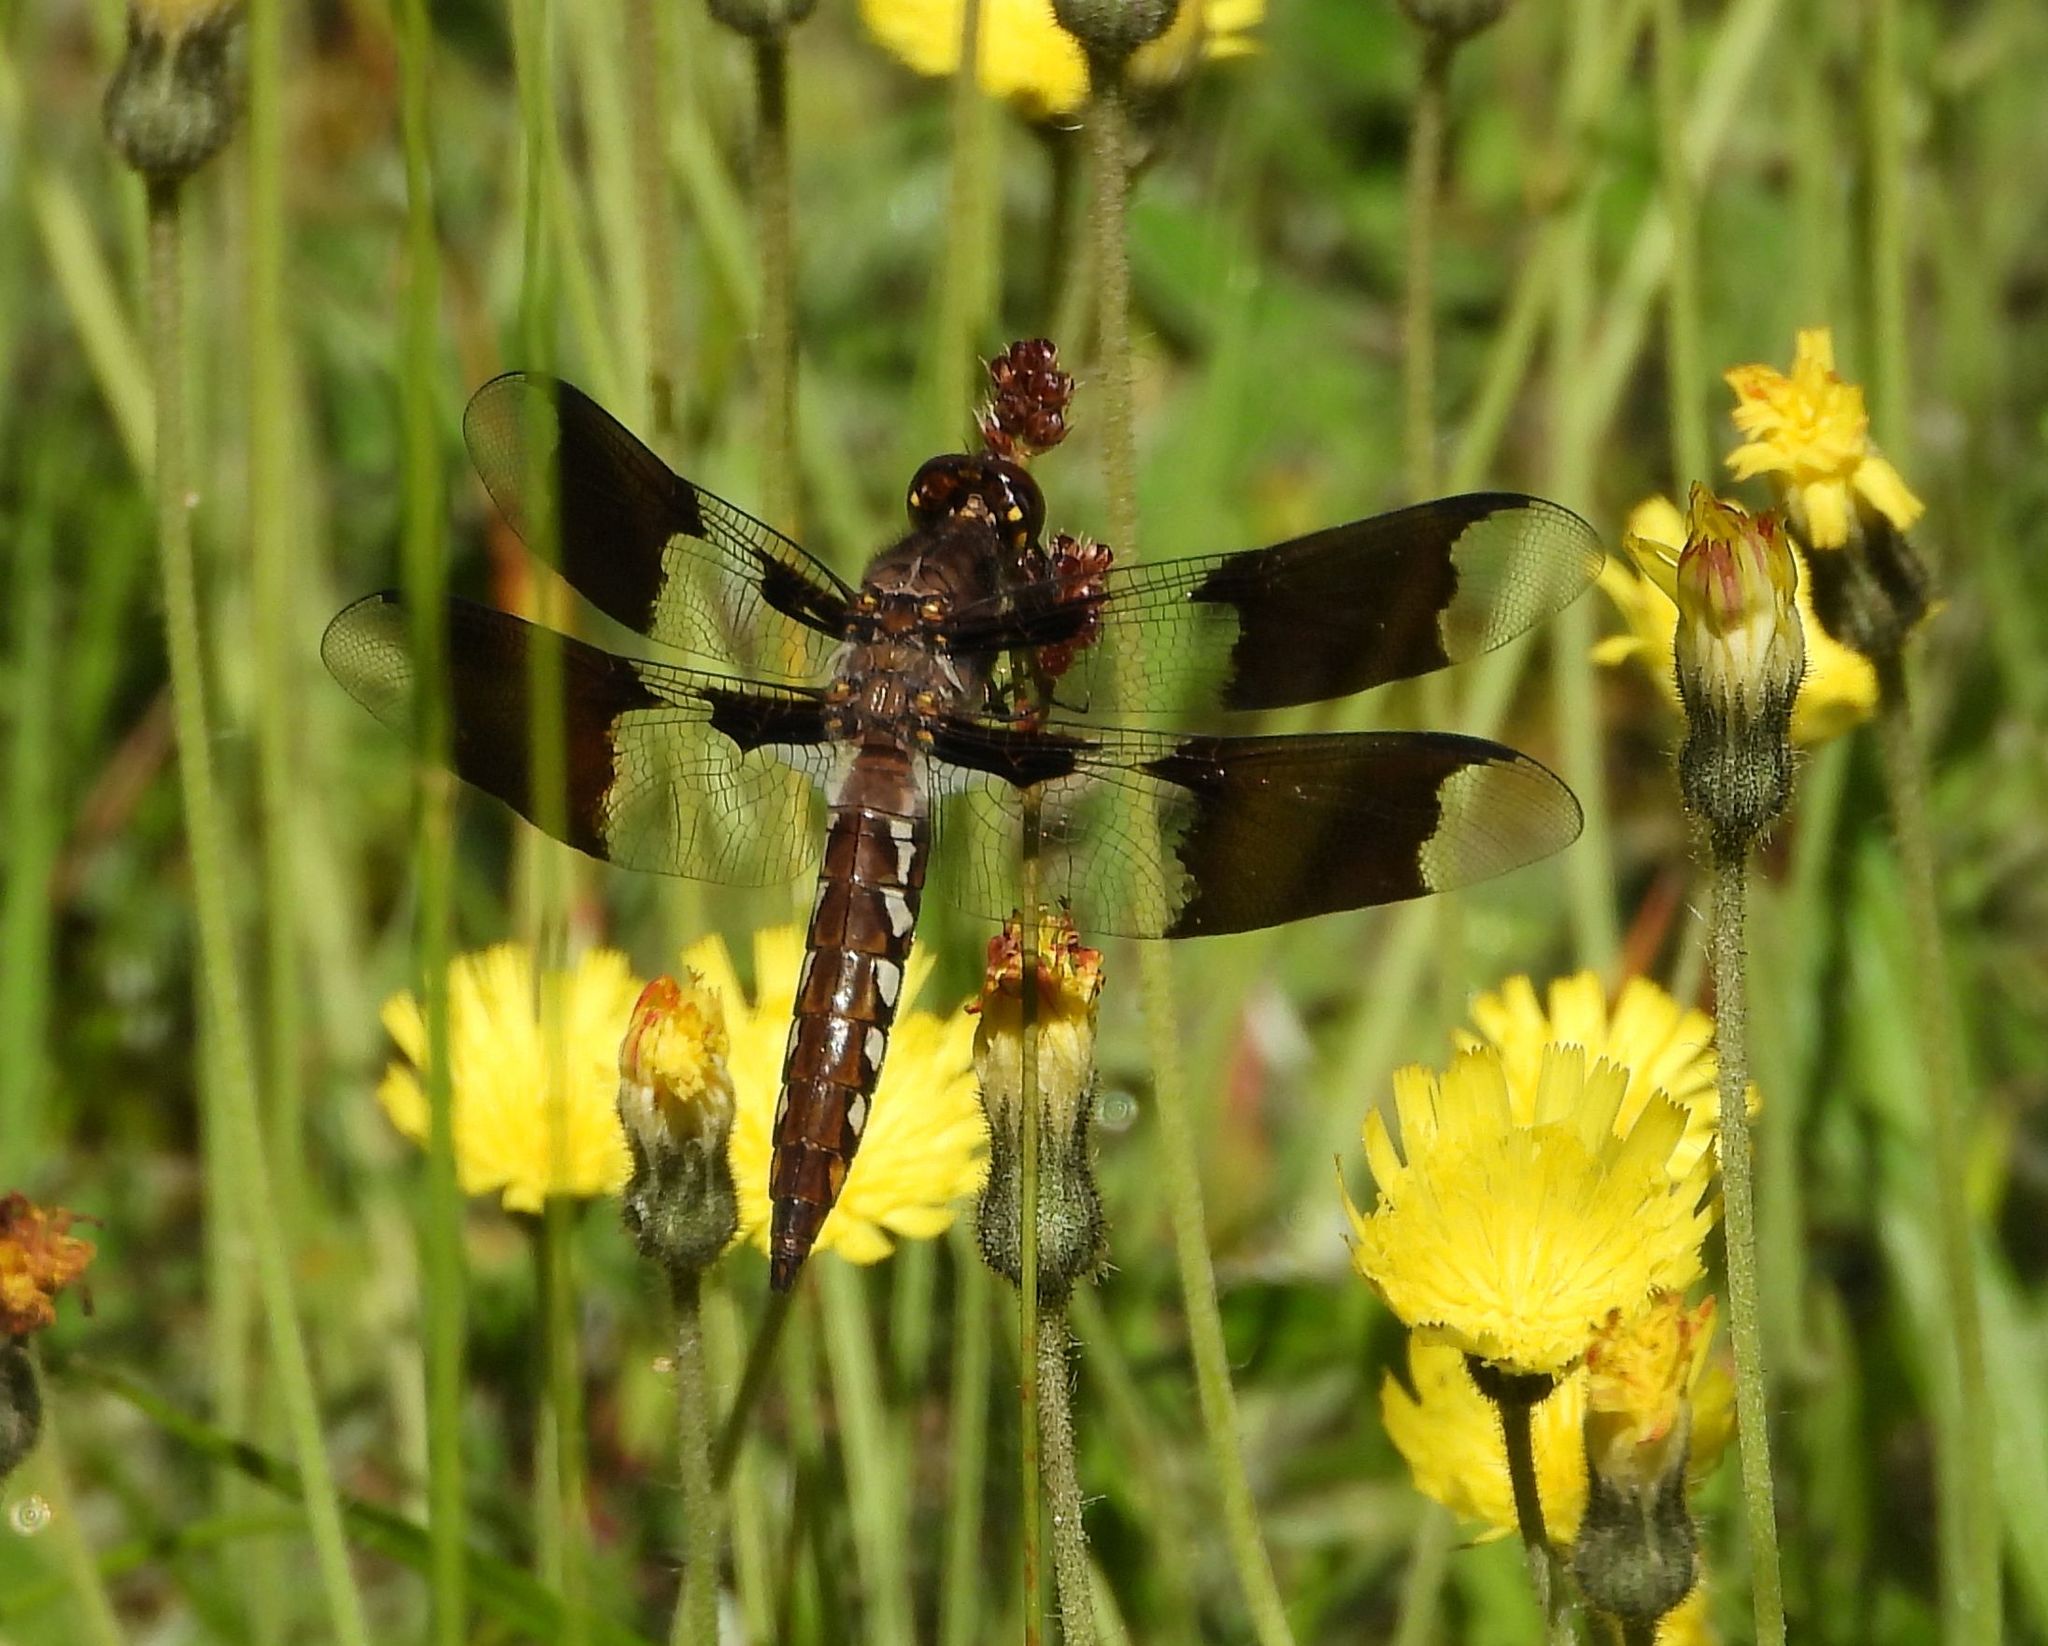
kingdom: Animalia
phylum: Arthropoda
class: Insecta
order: Odonata
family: Libellulidae
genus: Plathemis
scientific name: Plathemis lydia
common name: Common whitetail
